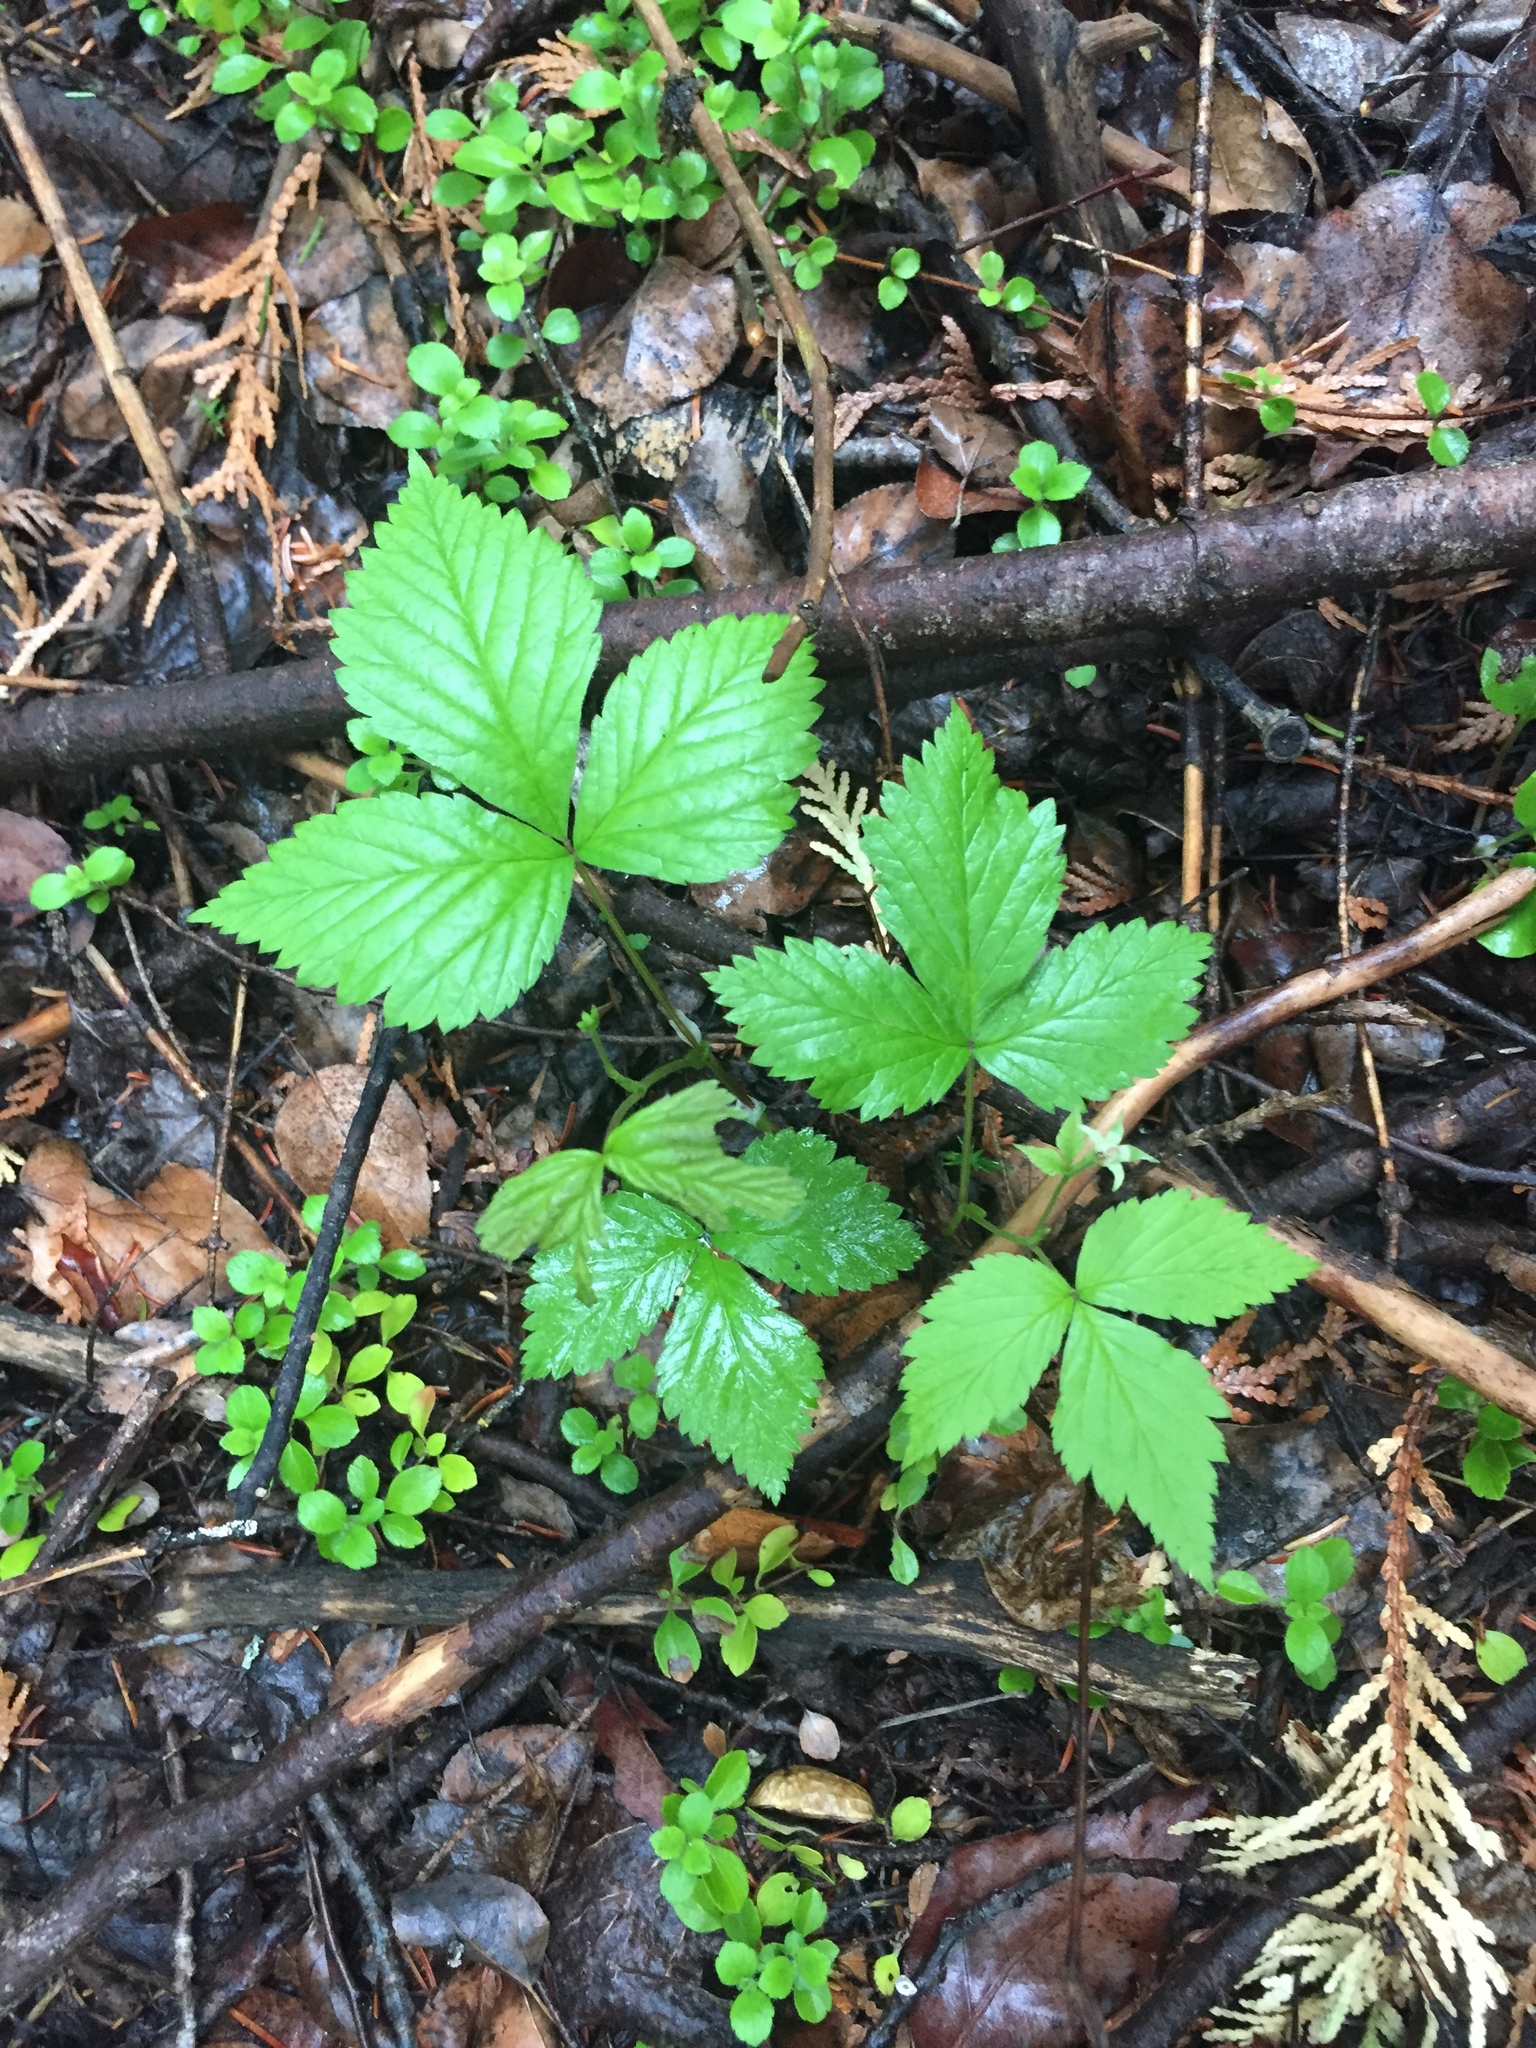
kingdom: Plantae
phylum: Tracheophyta
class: Magnoliopsida
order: Rosales
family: Rosaceae
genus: Rubus
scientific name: Rubus pubescens
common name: Dwarf raspberry
